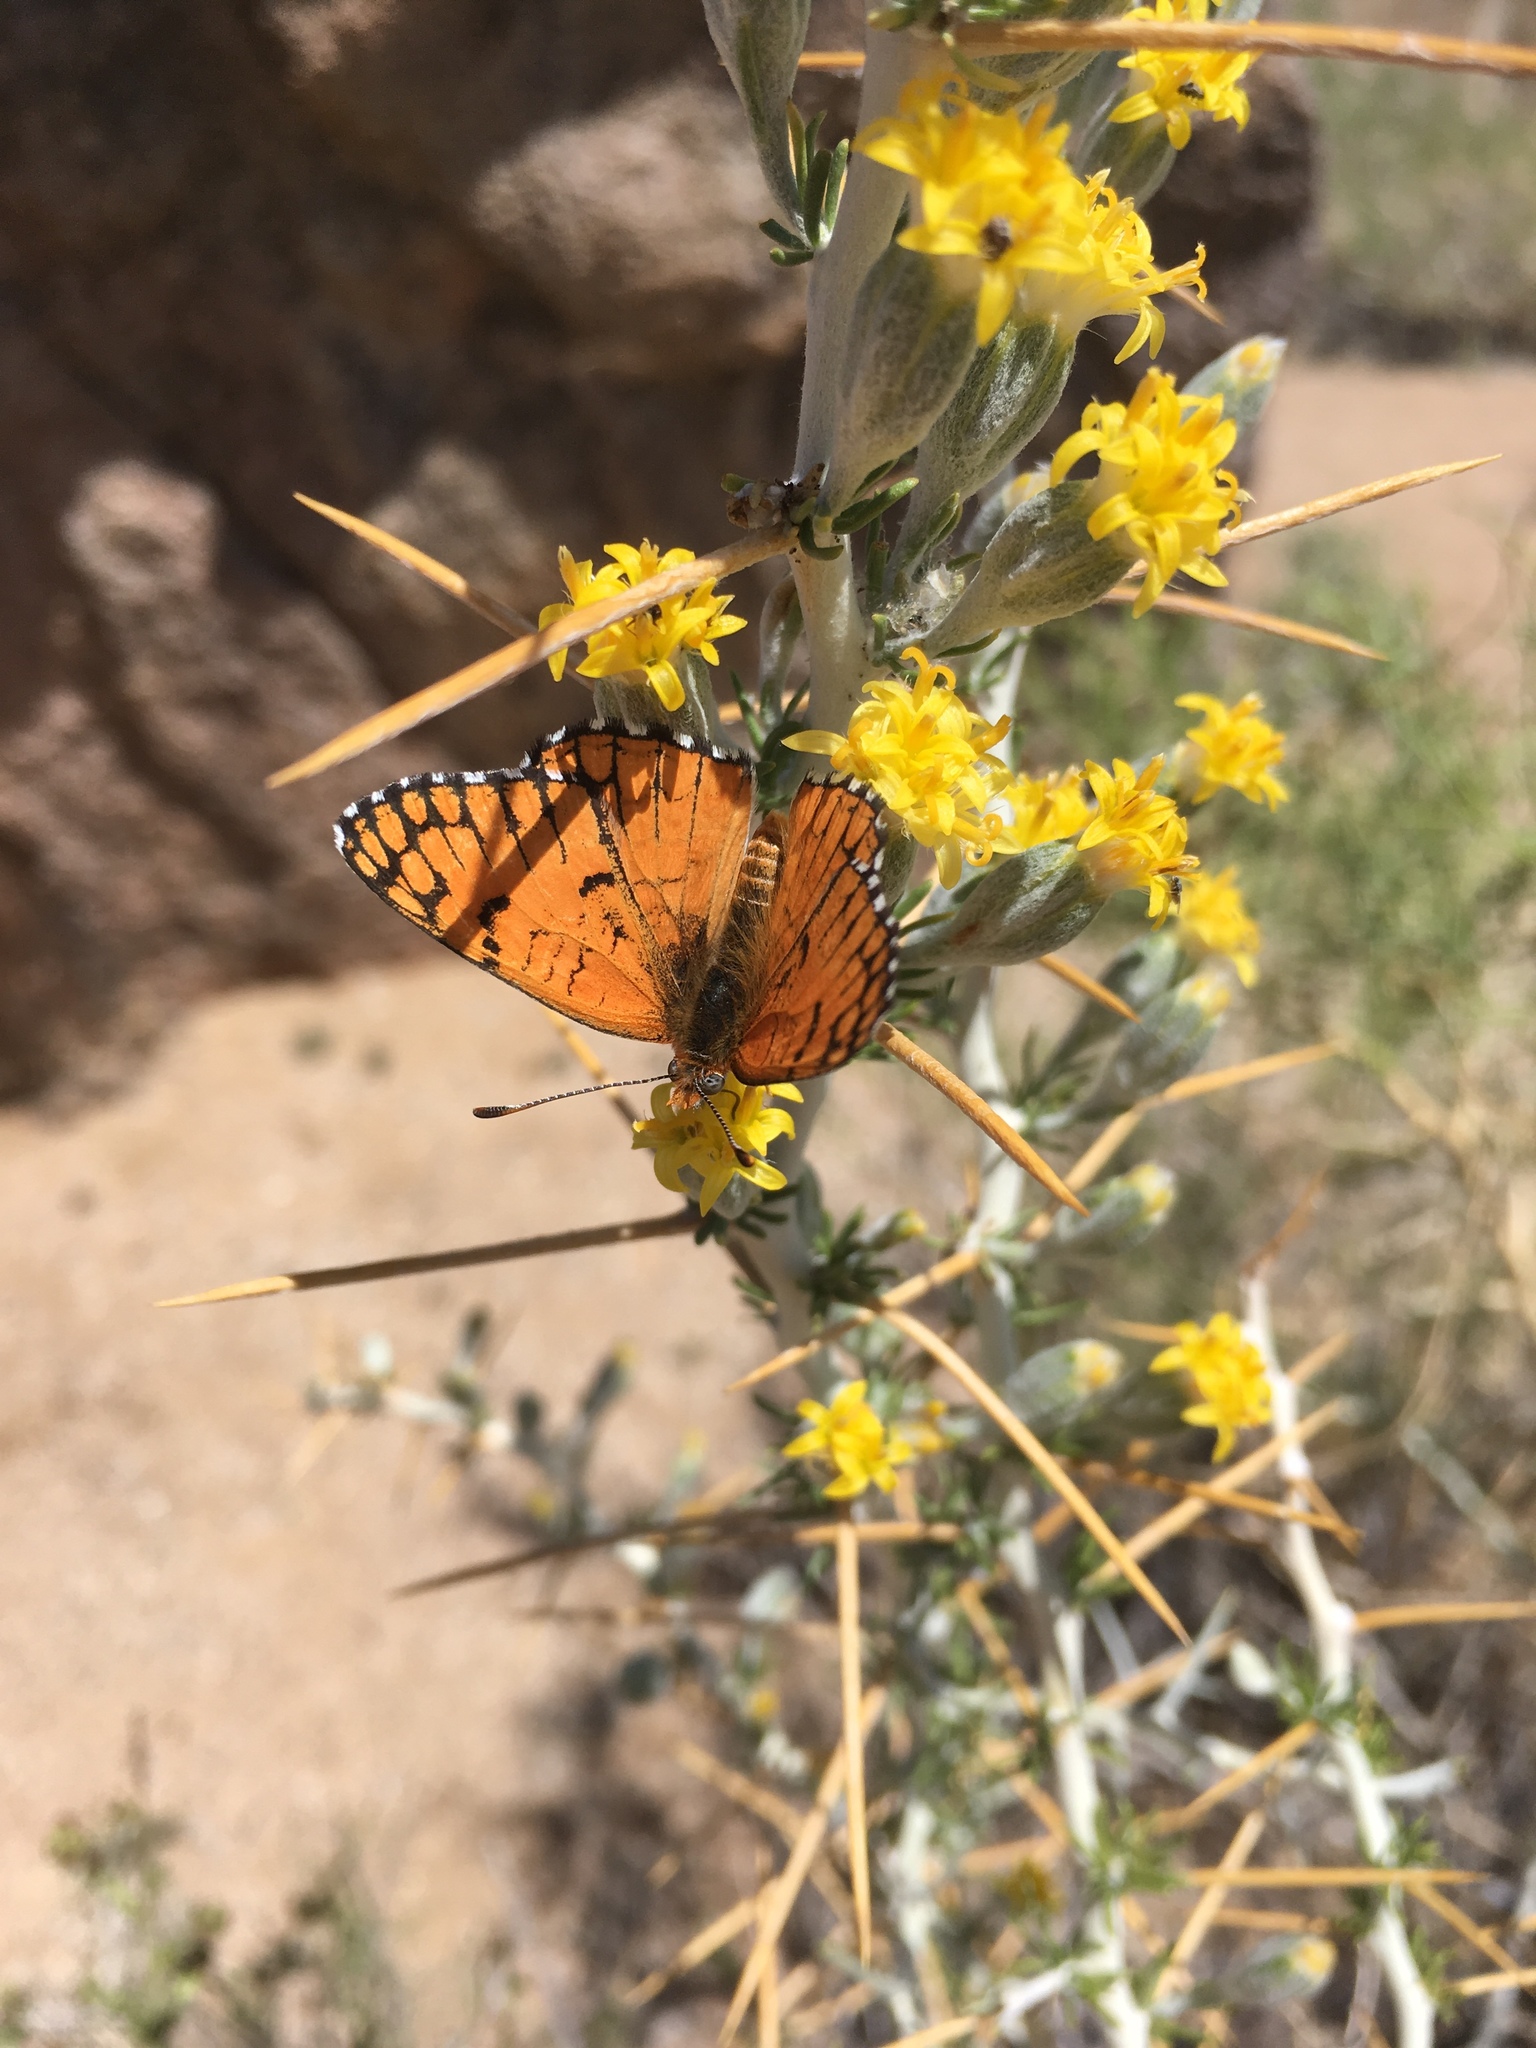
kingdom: Animalia
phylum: Arthropoda
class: Insecta
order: Lepidoptera
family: Nymphalidae
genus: Chlosyne
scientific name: Chlosyne acastus
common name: Sagebrush checkerspot
